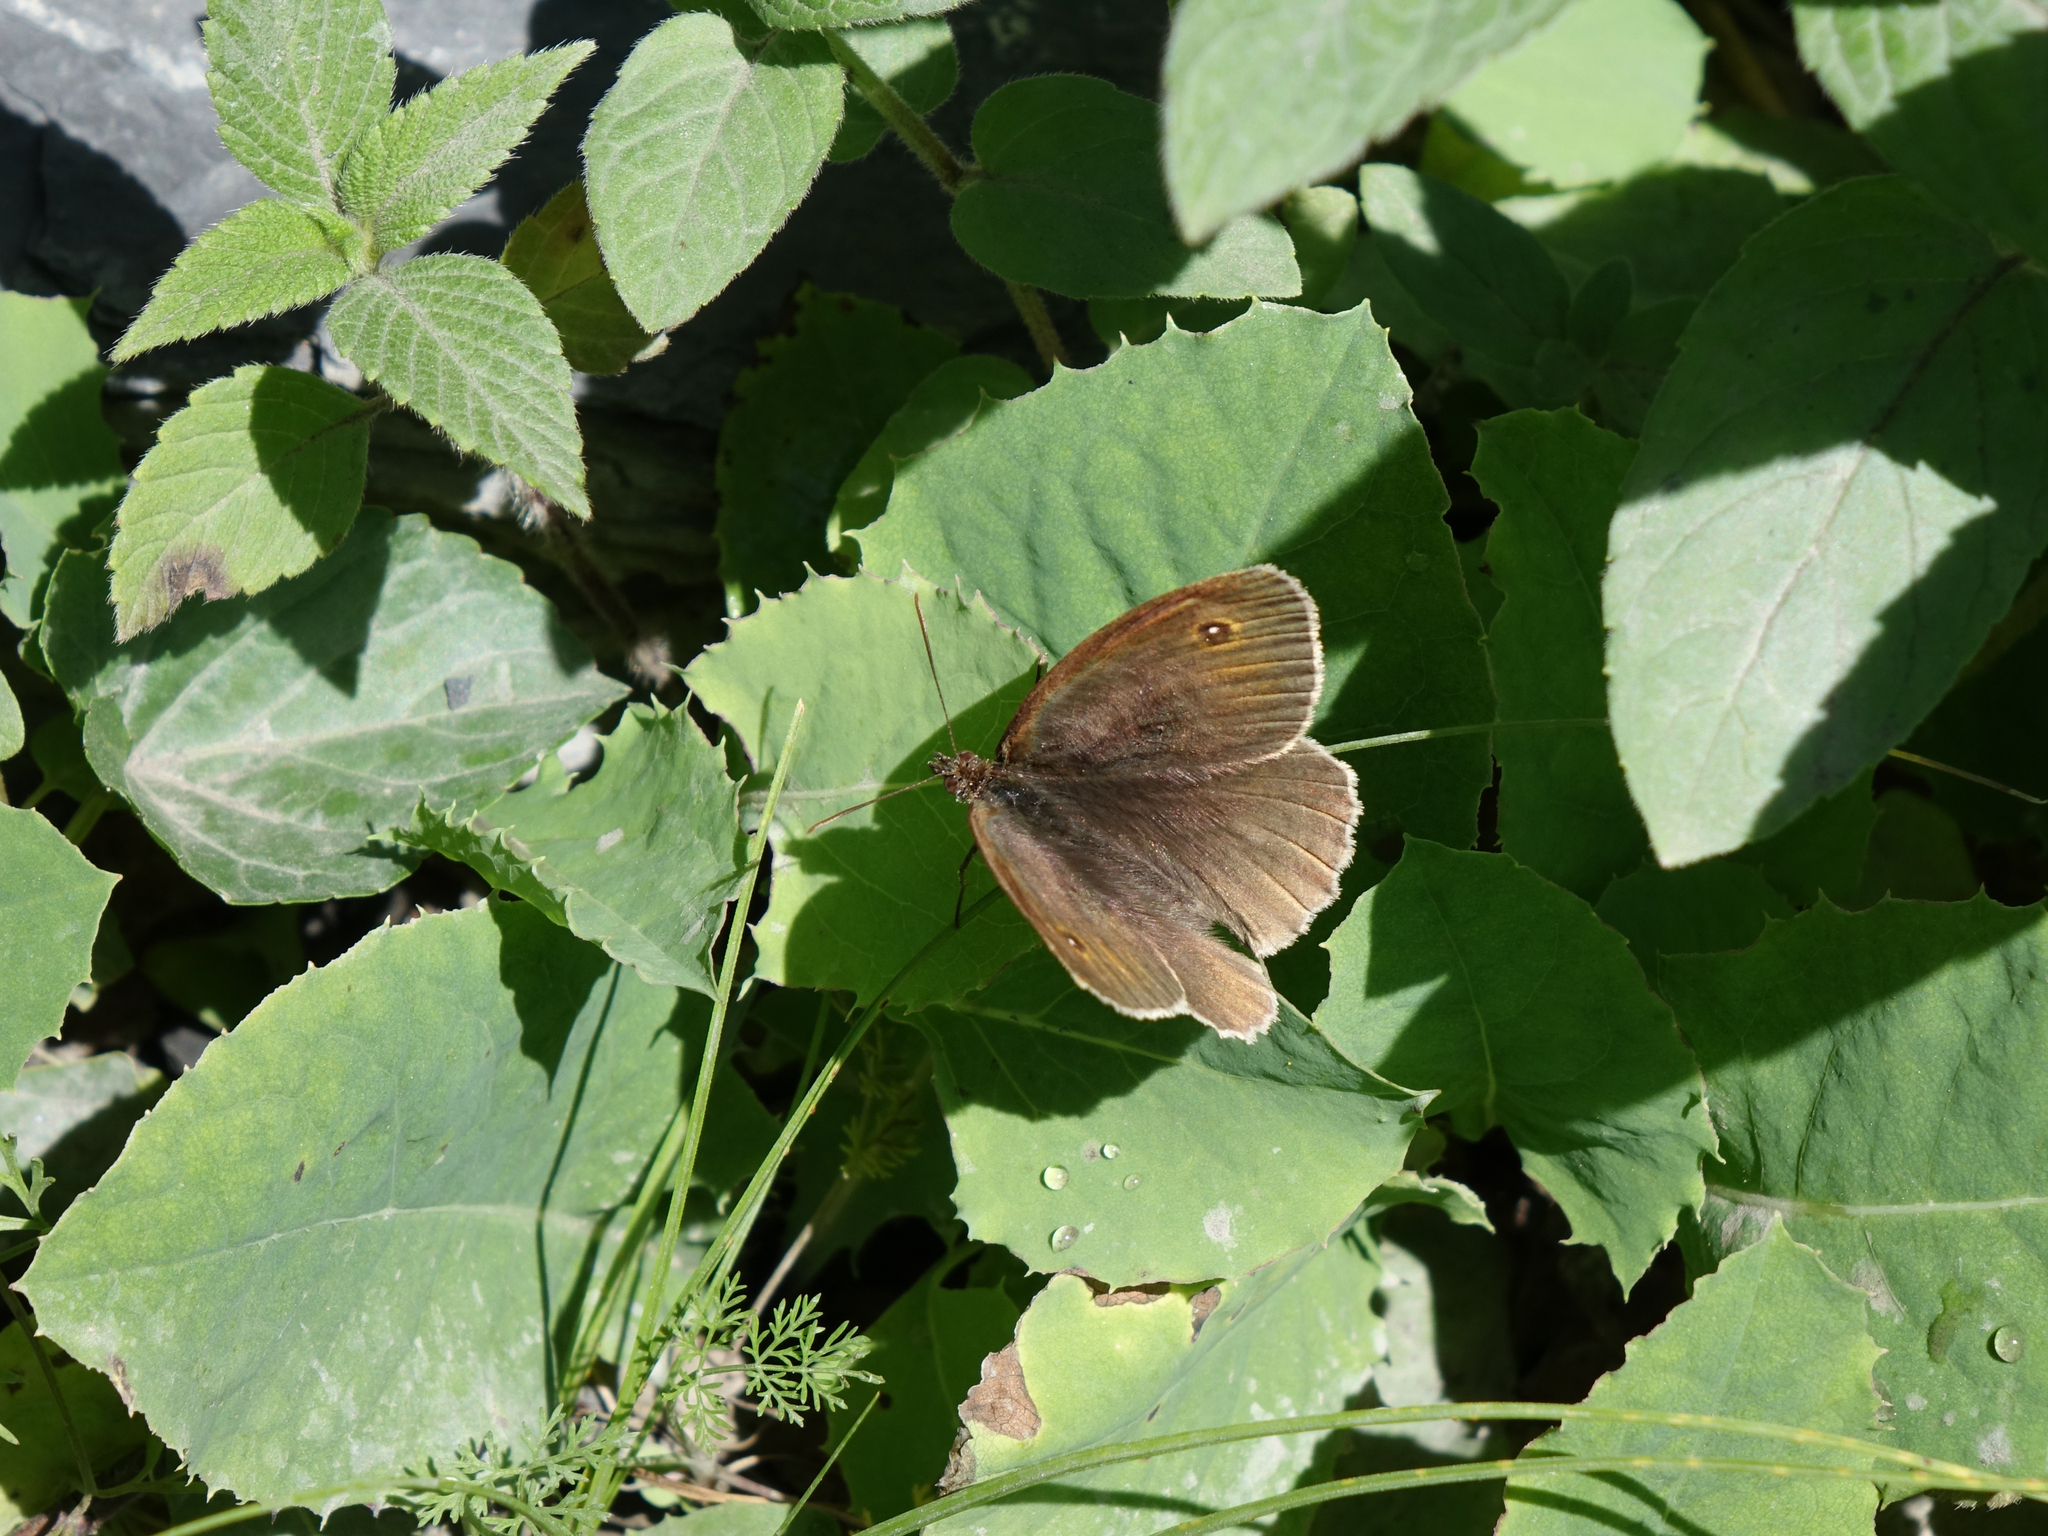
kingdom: Animalia
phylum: Arthropoda
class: Insecta
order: Lepidoptera
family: Nymphalidae
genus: Maniola
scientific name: Maniola jurtina
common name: Meadow brown
